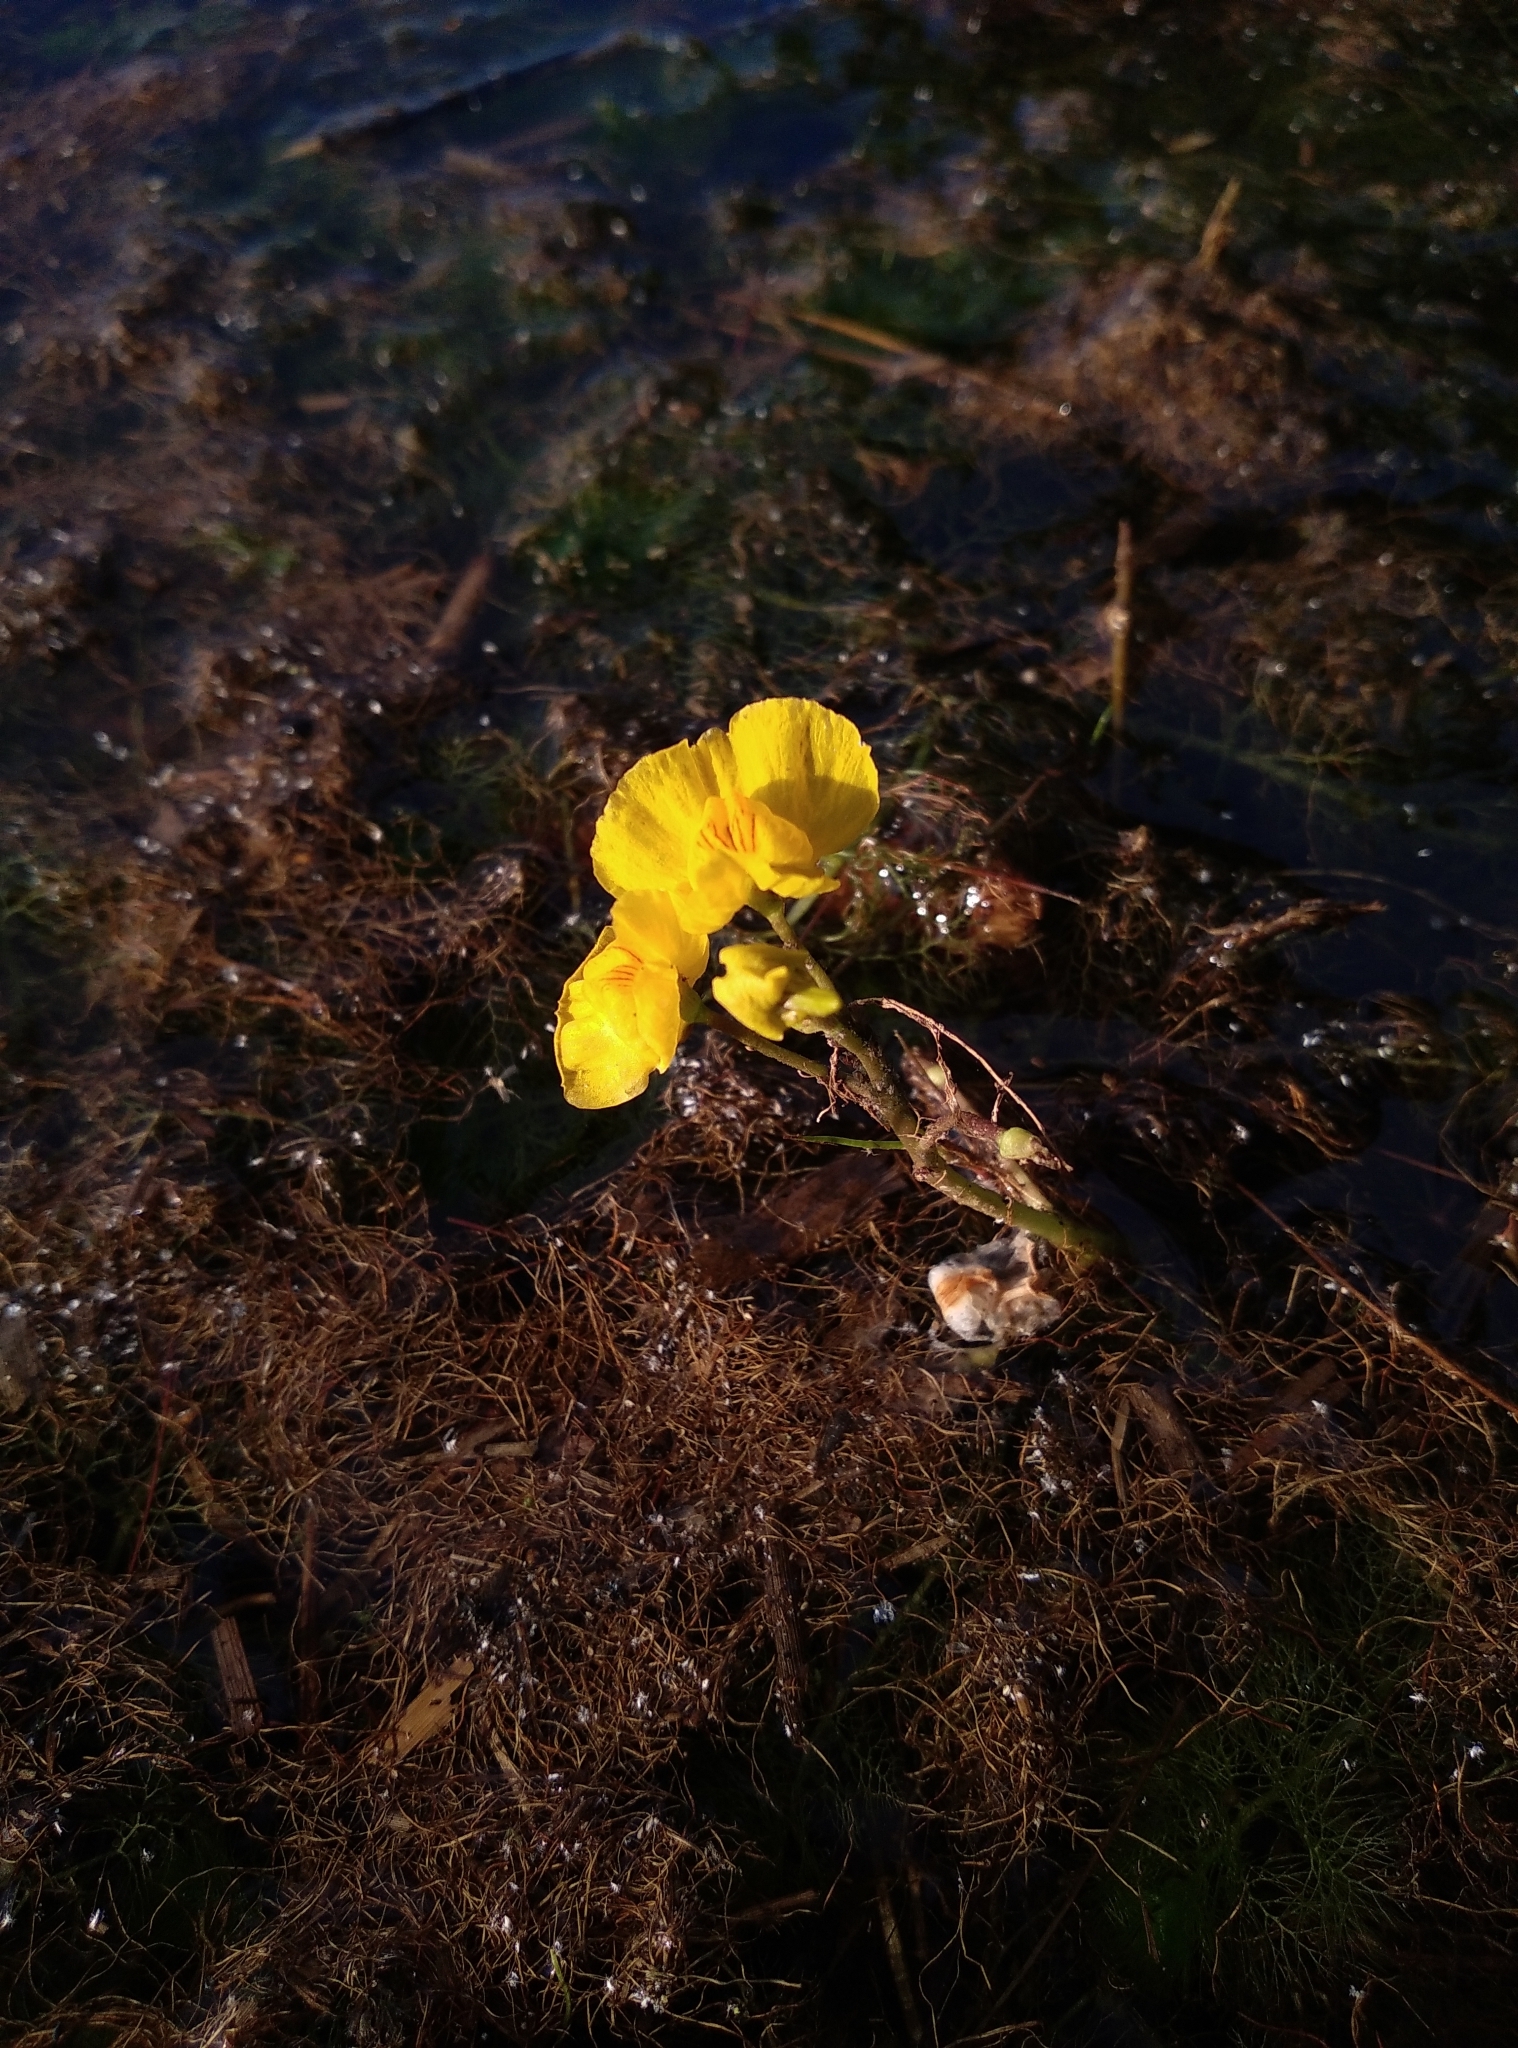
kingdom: Plantae
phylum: Tracheophyta
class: Magnoliopsida
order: Lamiales
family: Lentibulariaceae
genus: Utricularia
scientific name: Utricularia australis
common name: Bladderwort
